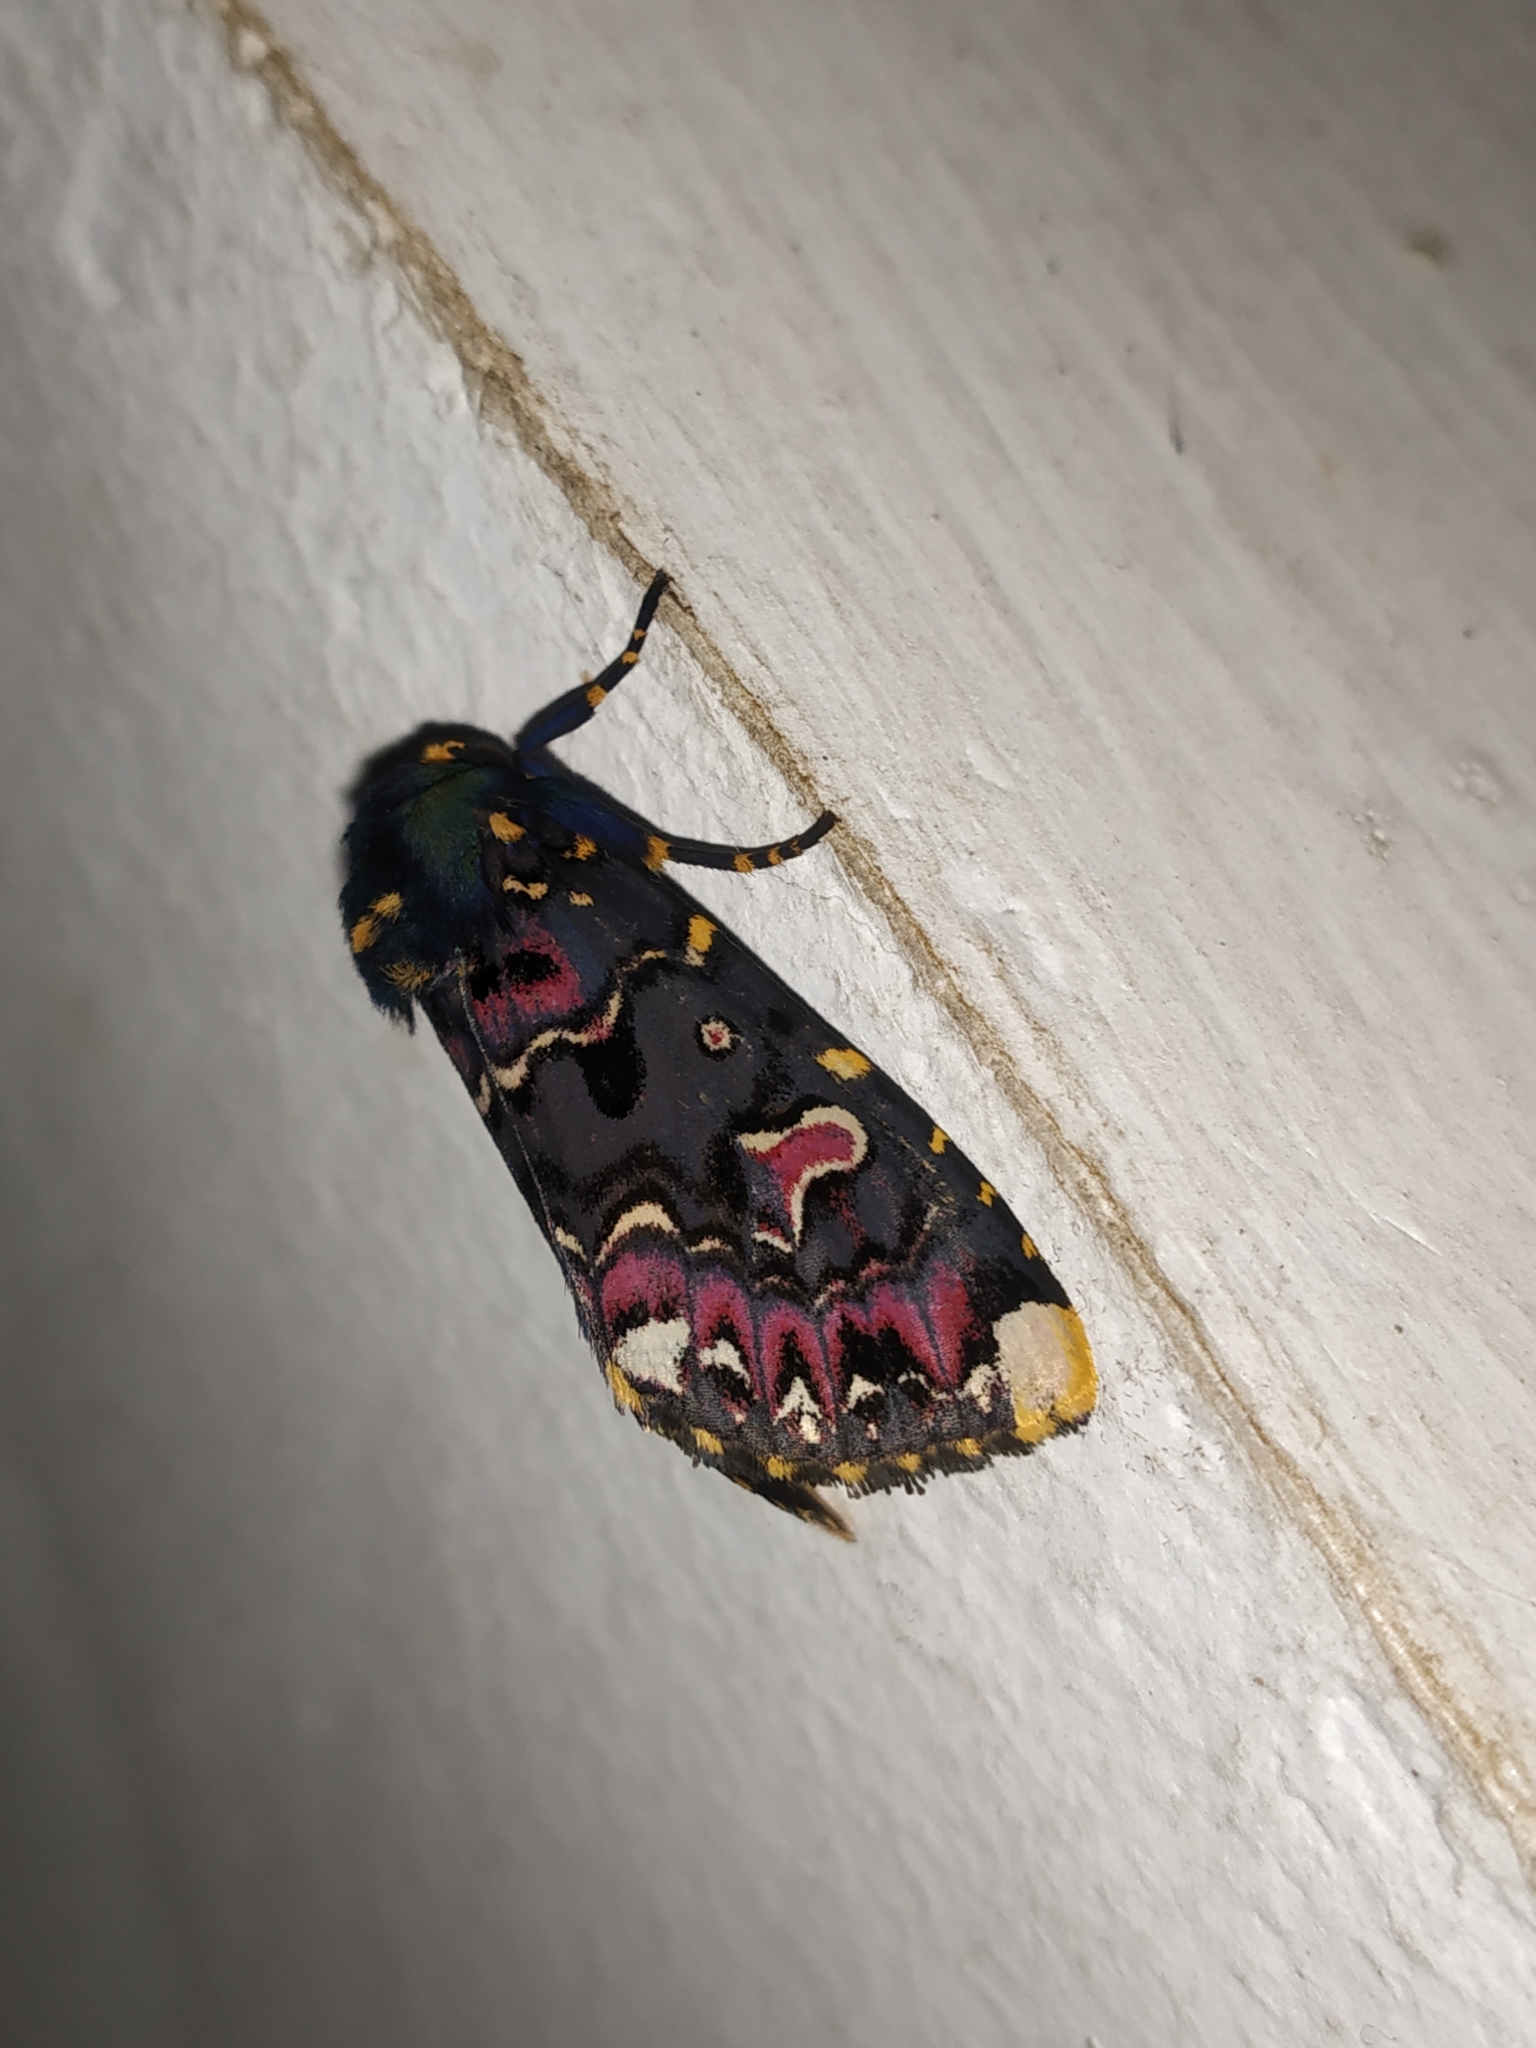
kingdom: Animalia
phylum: Arthropoda
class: Insecta
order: Lepidoptera
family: Noctuidae
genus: Polytela
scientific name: Polytela gloriosae
